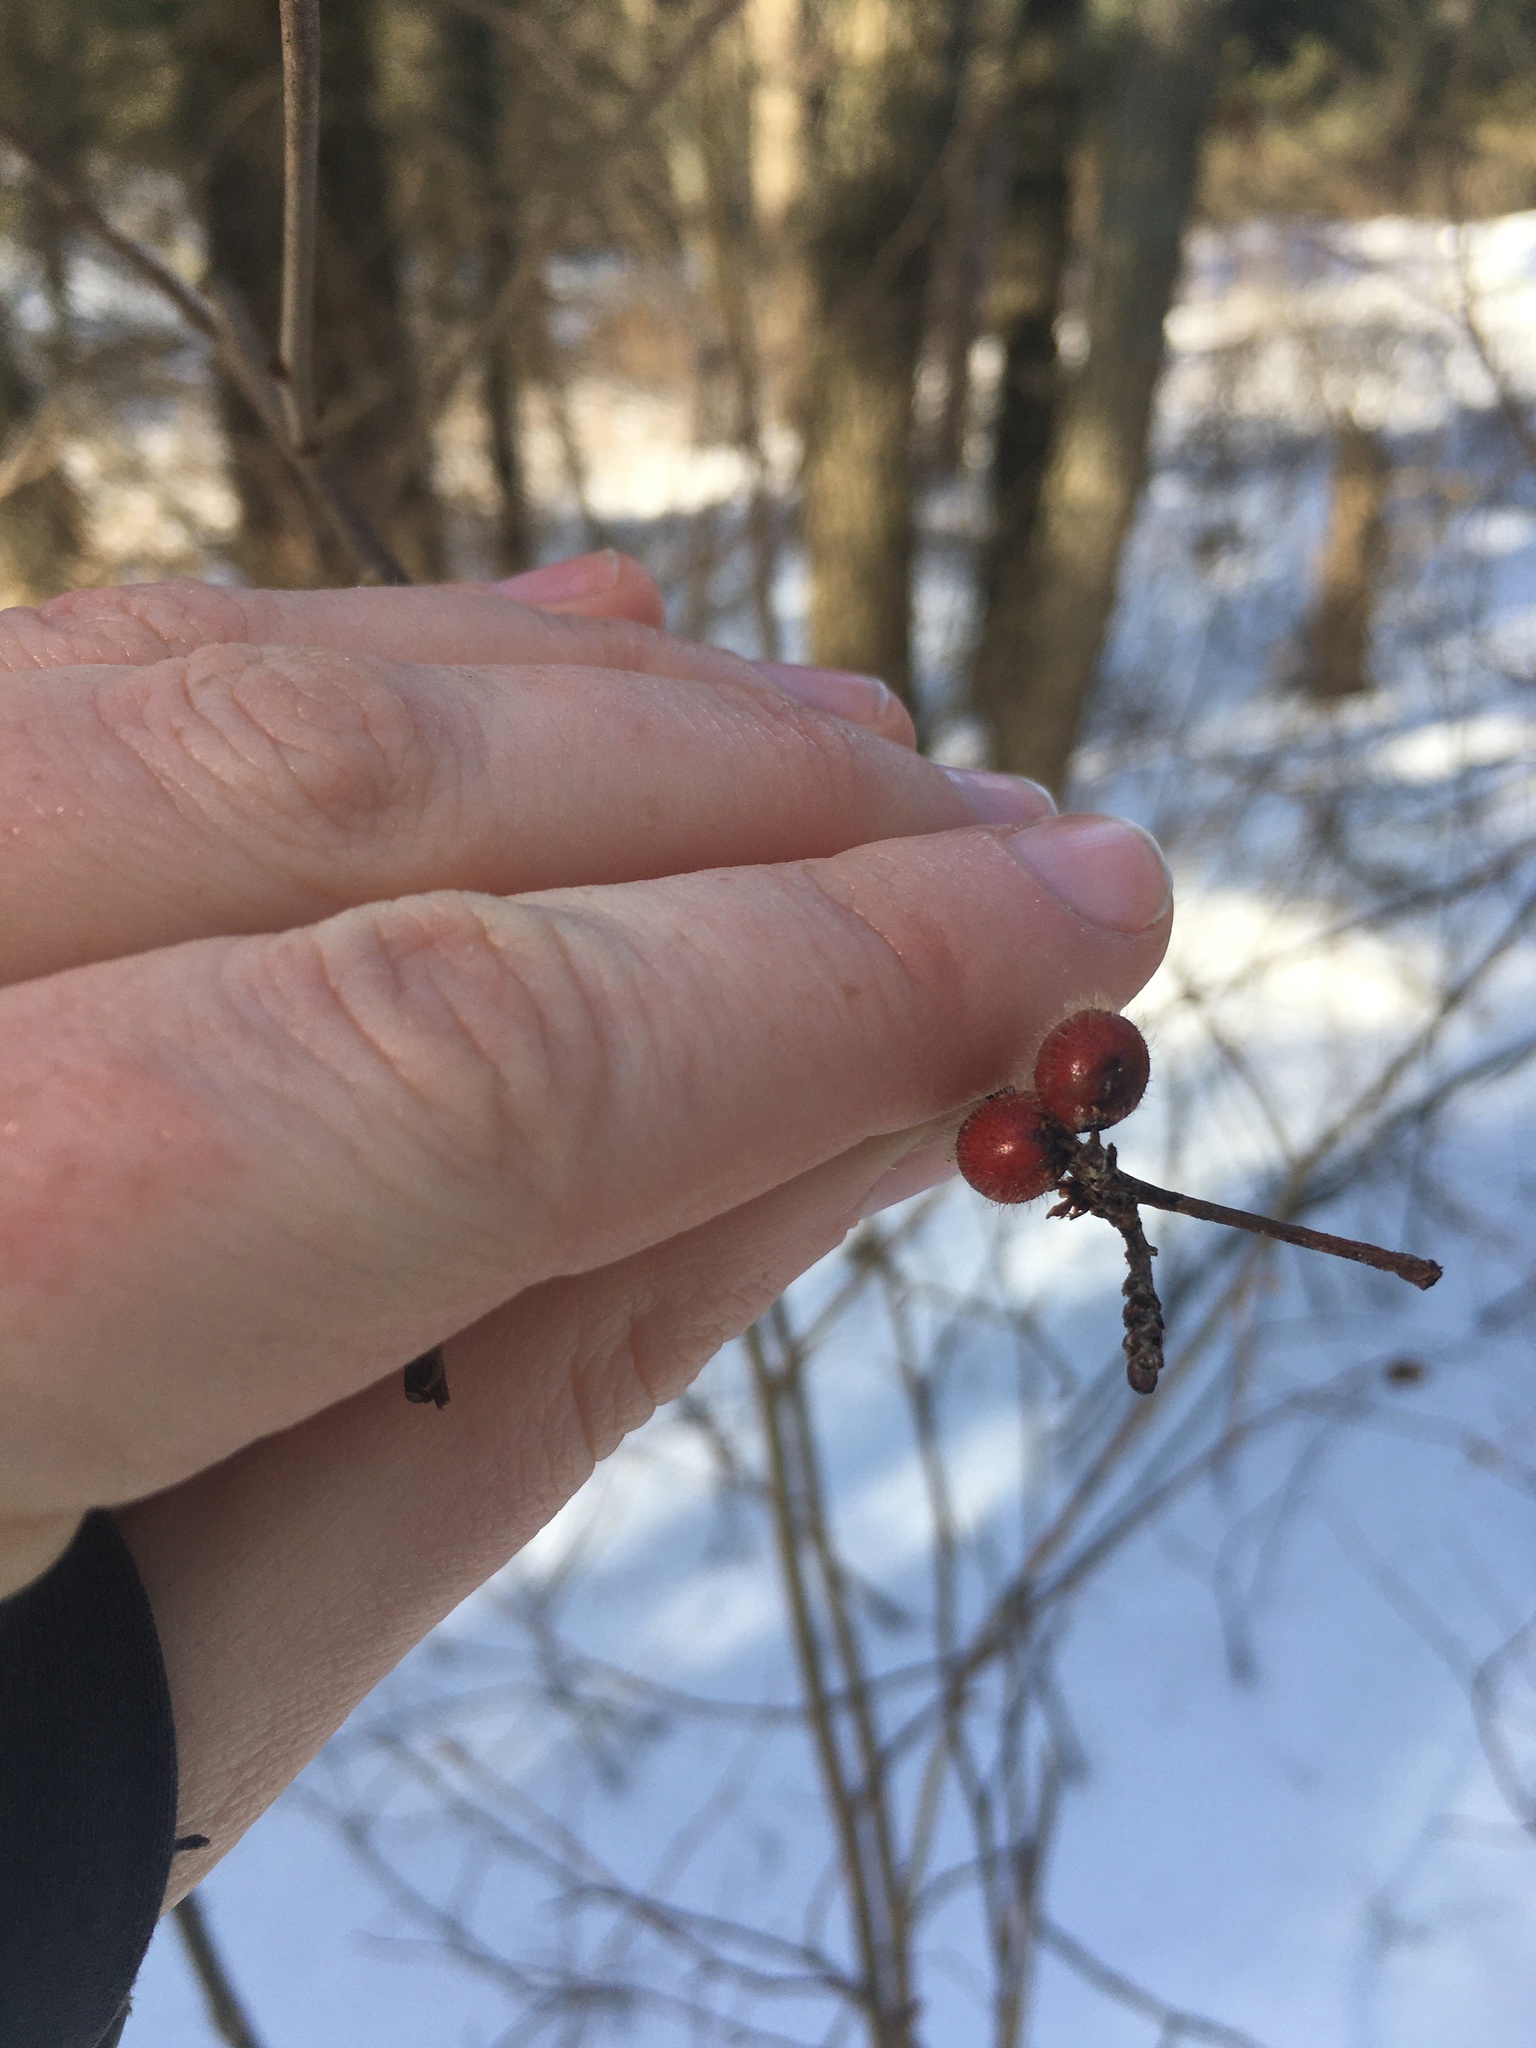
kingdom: Plantae
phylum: Tracheophyta
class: Magnoliopsida
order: Sapindales
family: Anacardiaceae
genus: Rhus
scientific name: Rhus aromatica
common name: Aromatic sumac
